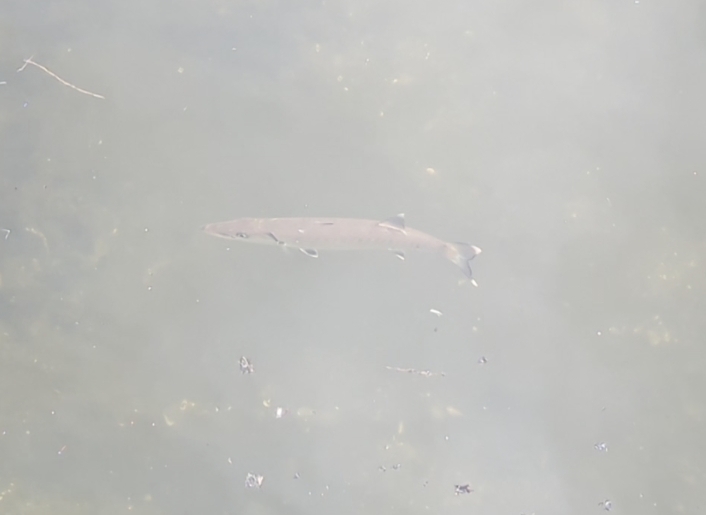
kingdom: Animalia
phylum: Chordata
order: Perciformes
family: Sphyraenidae
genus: Sphyraena
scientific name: Sphyraena barracuda
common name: Great barracuda
